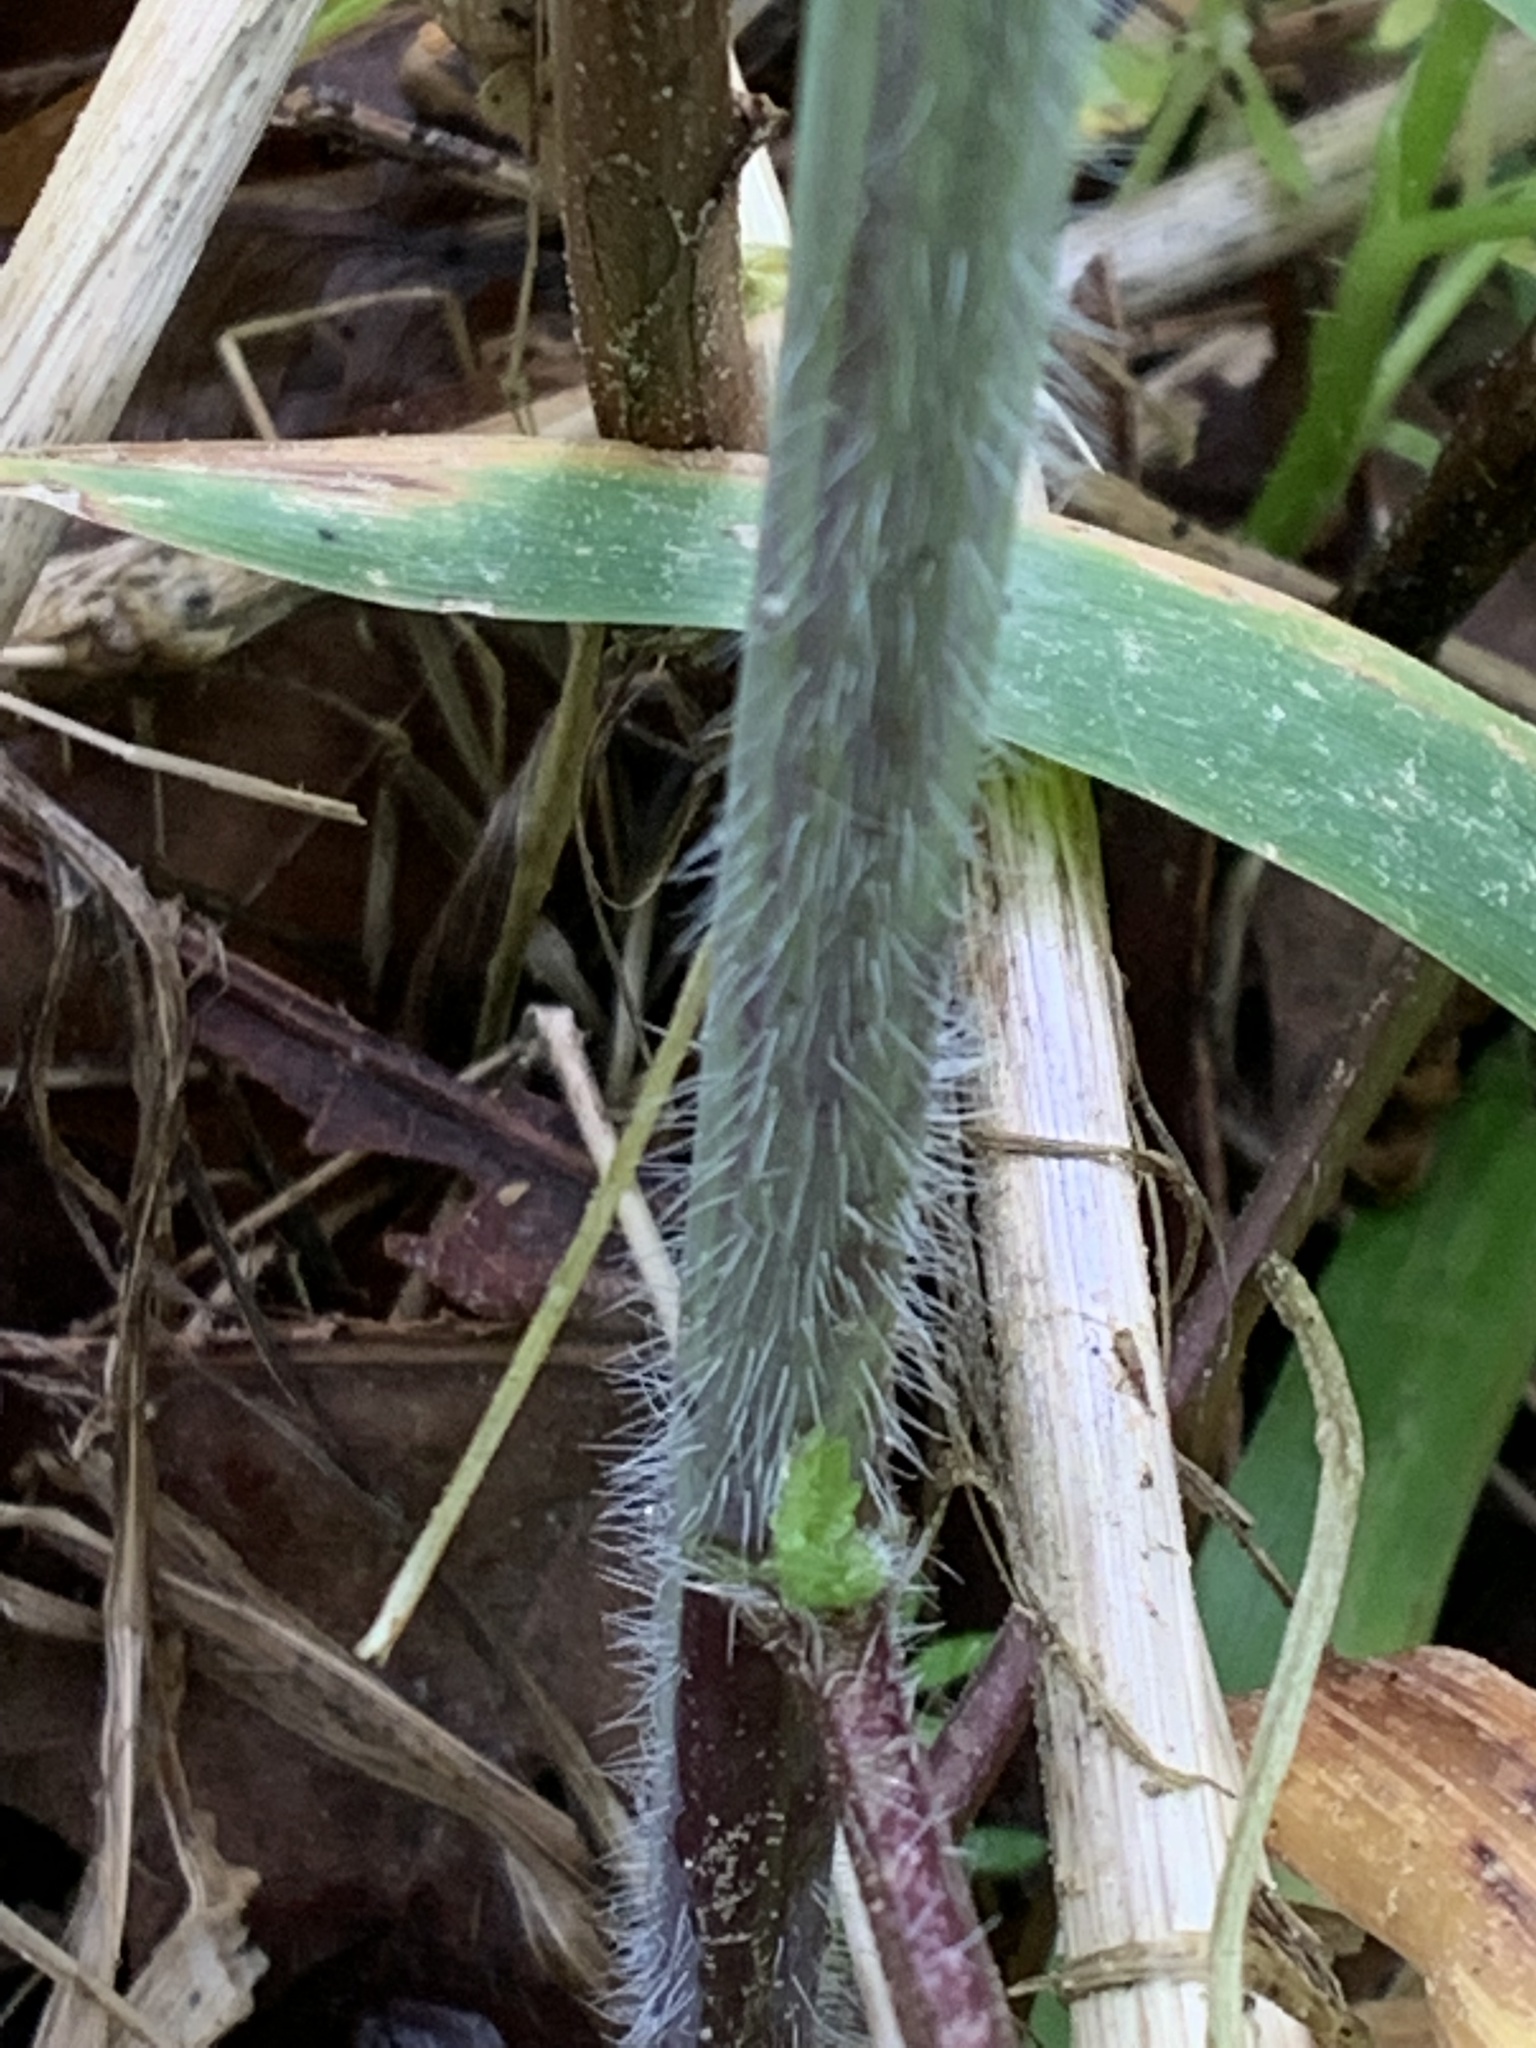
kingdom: Plantae
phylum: Tracheophyta
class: Magnoliopsida
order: Brassicales
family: Brassicaceae
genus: Alliaria
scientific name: Alliaria petiolata
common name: Garlic mustard
